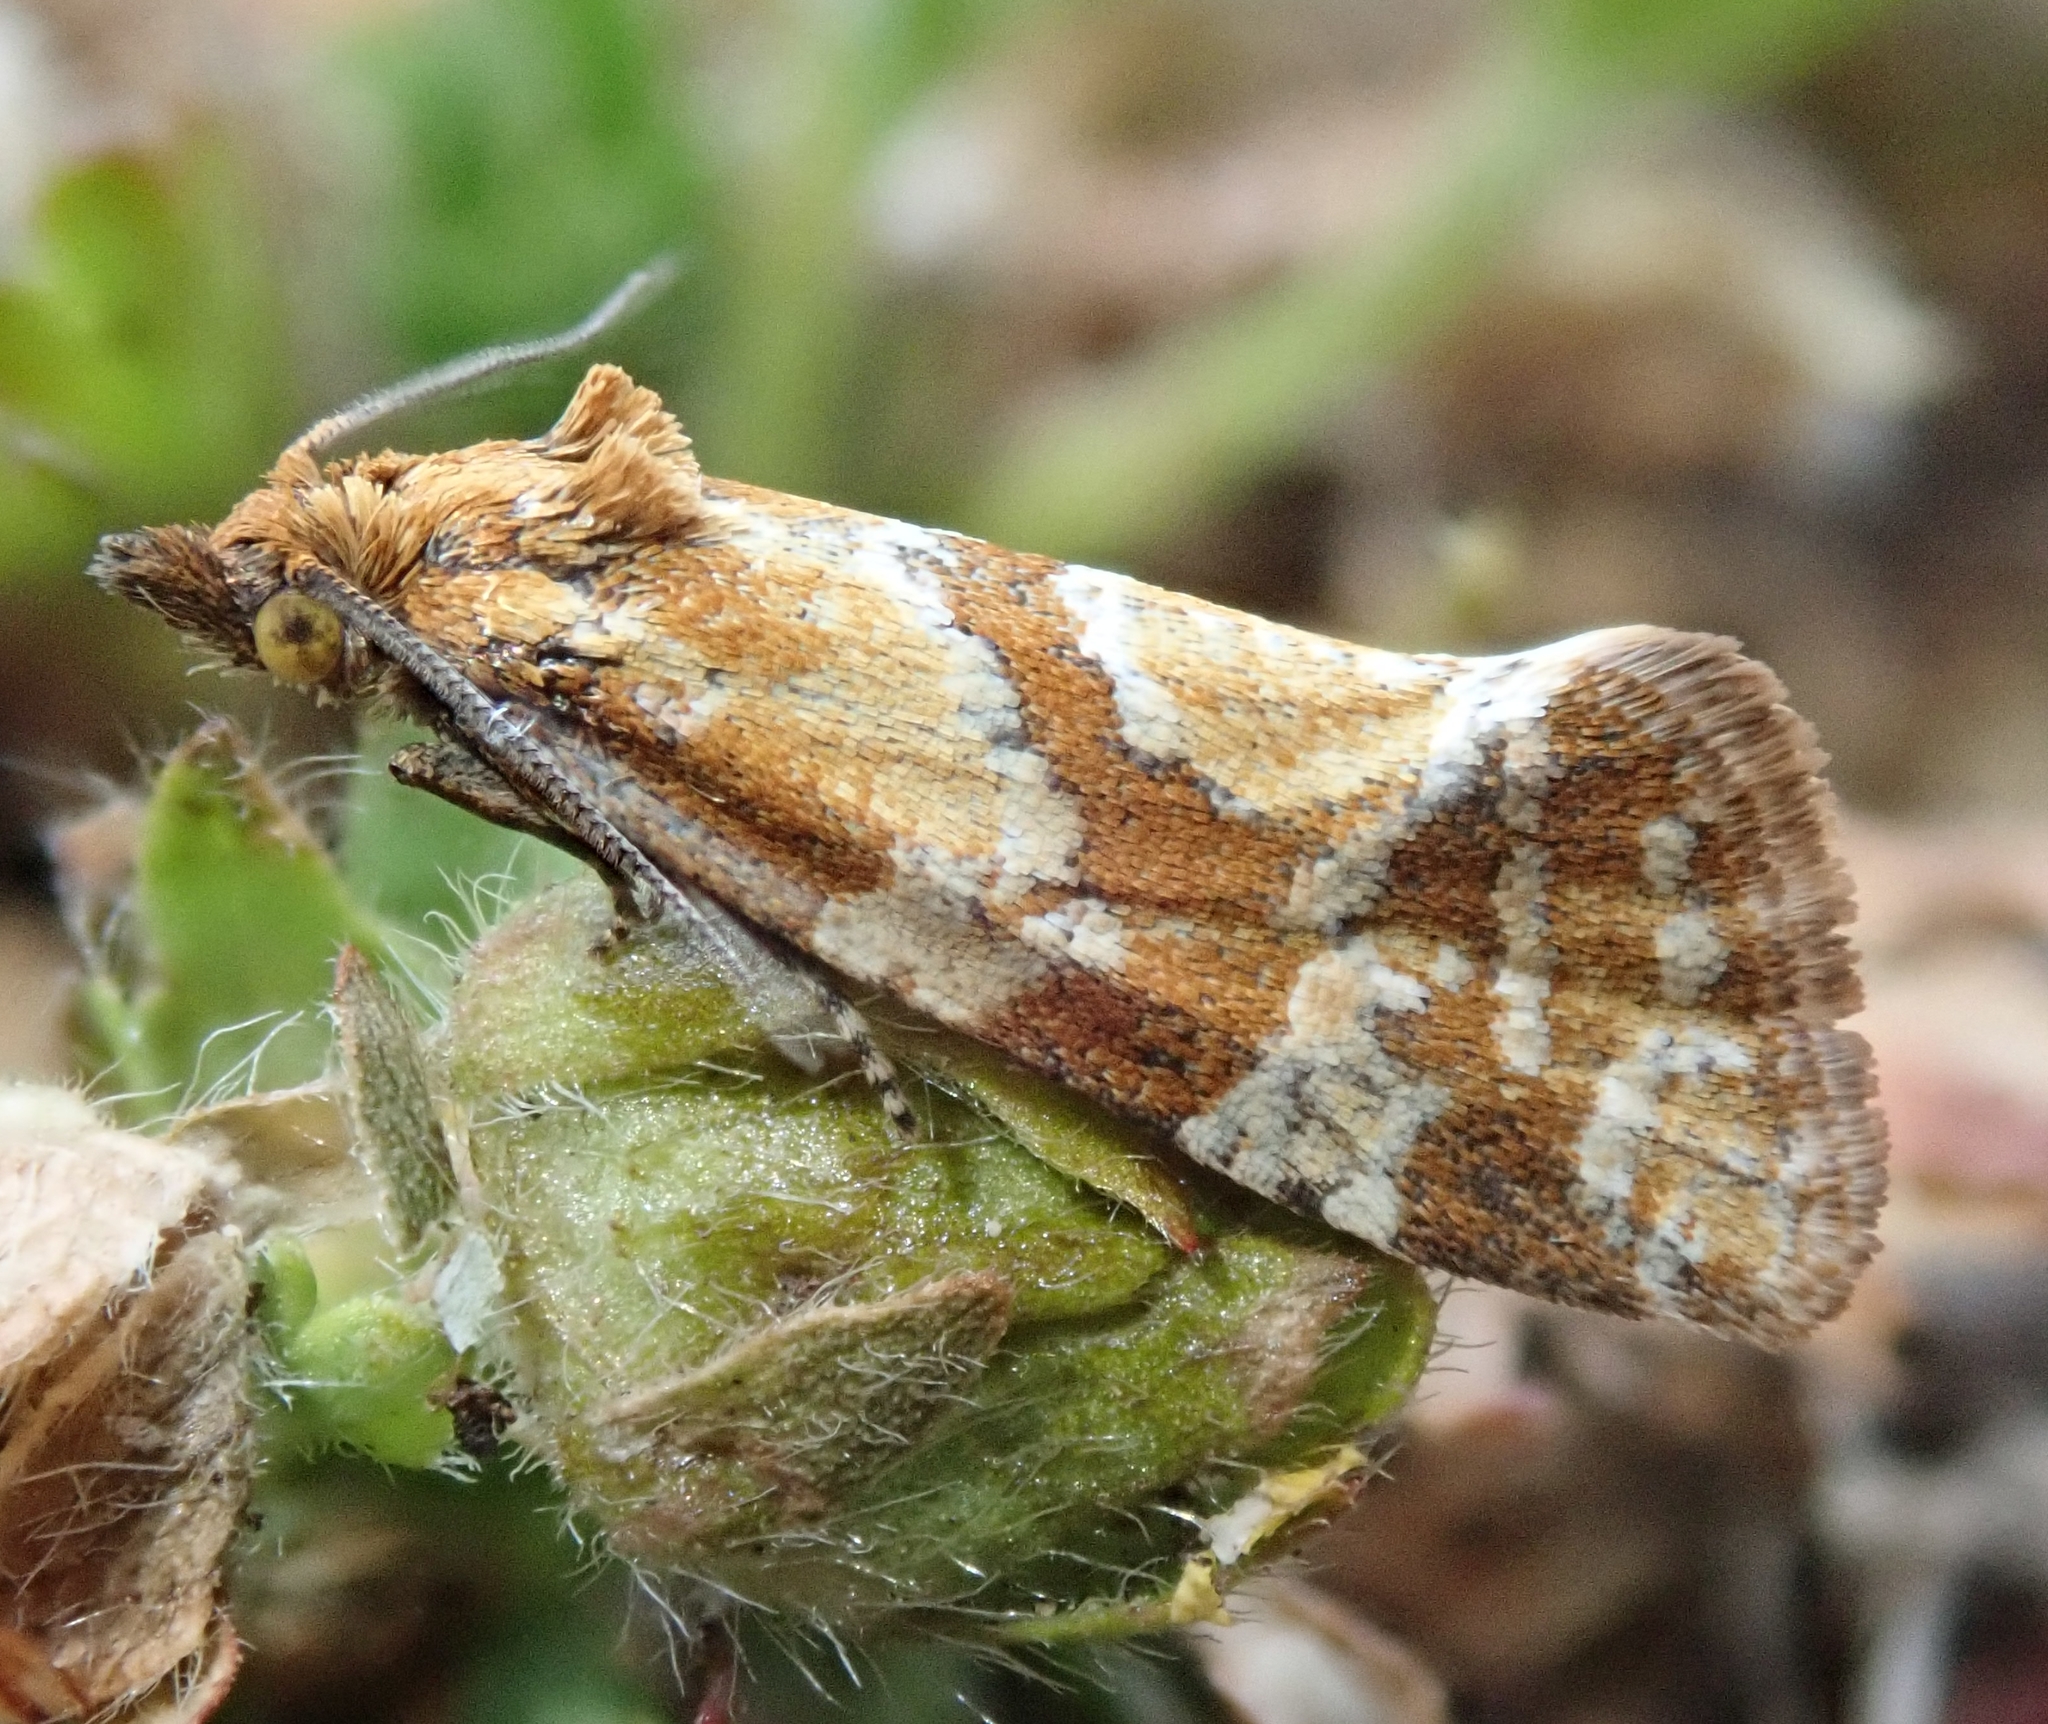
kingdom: Animalia
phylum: Arthropoda
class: Insecta
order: Lepidoptera
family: Tortricidae
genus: Aethes
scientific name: Aethes hartmanniana
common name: Scabious conch
